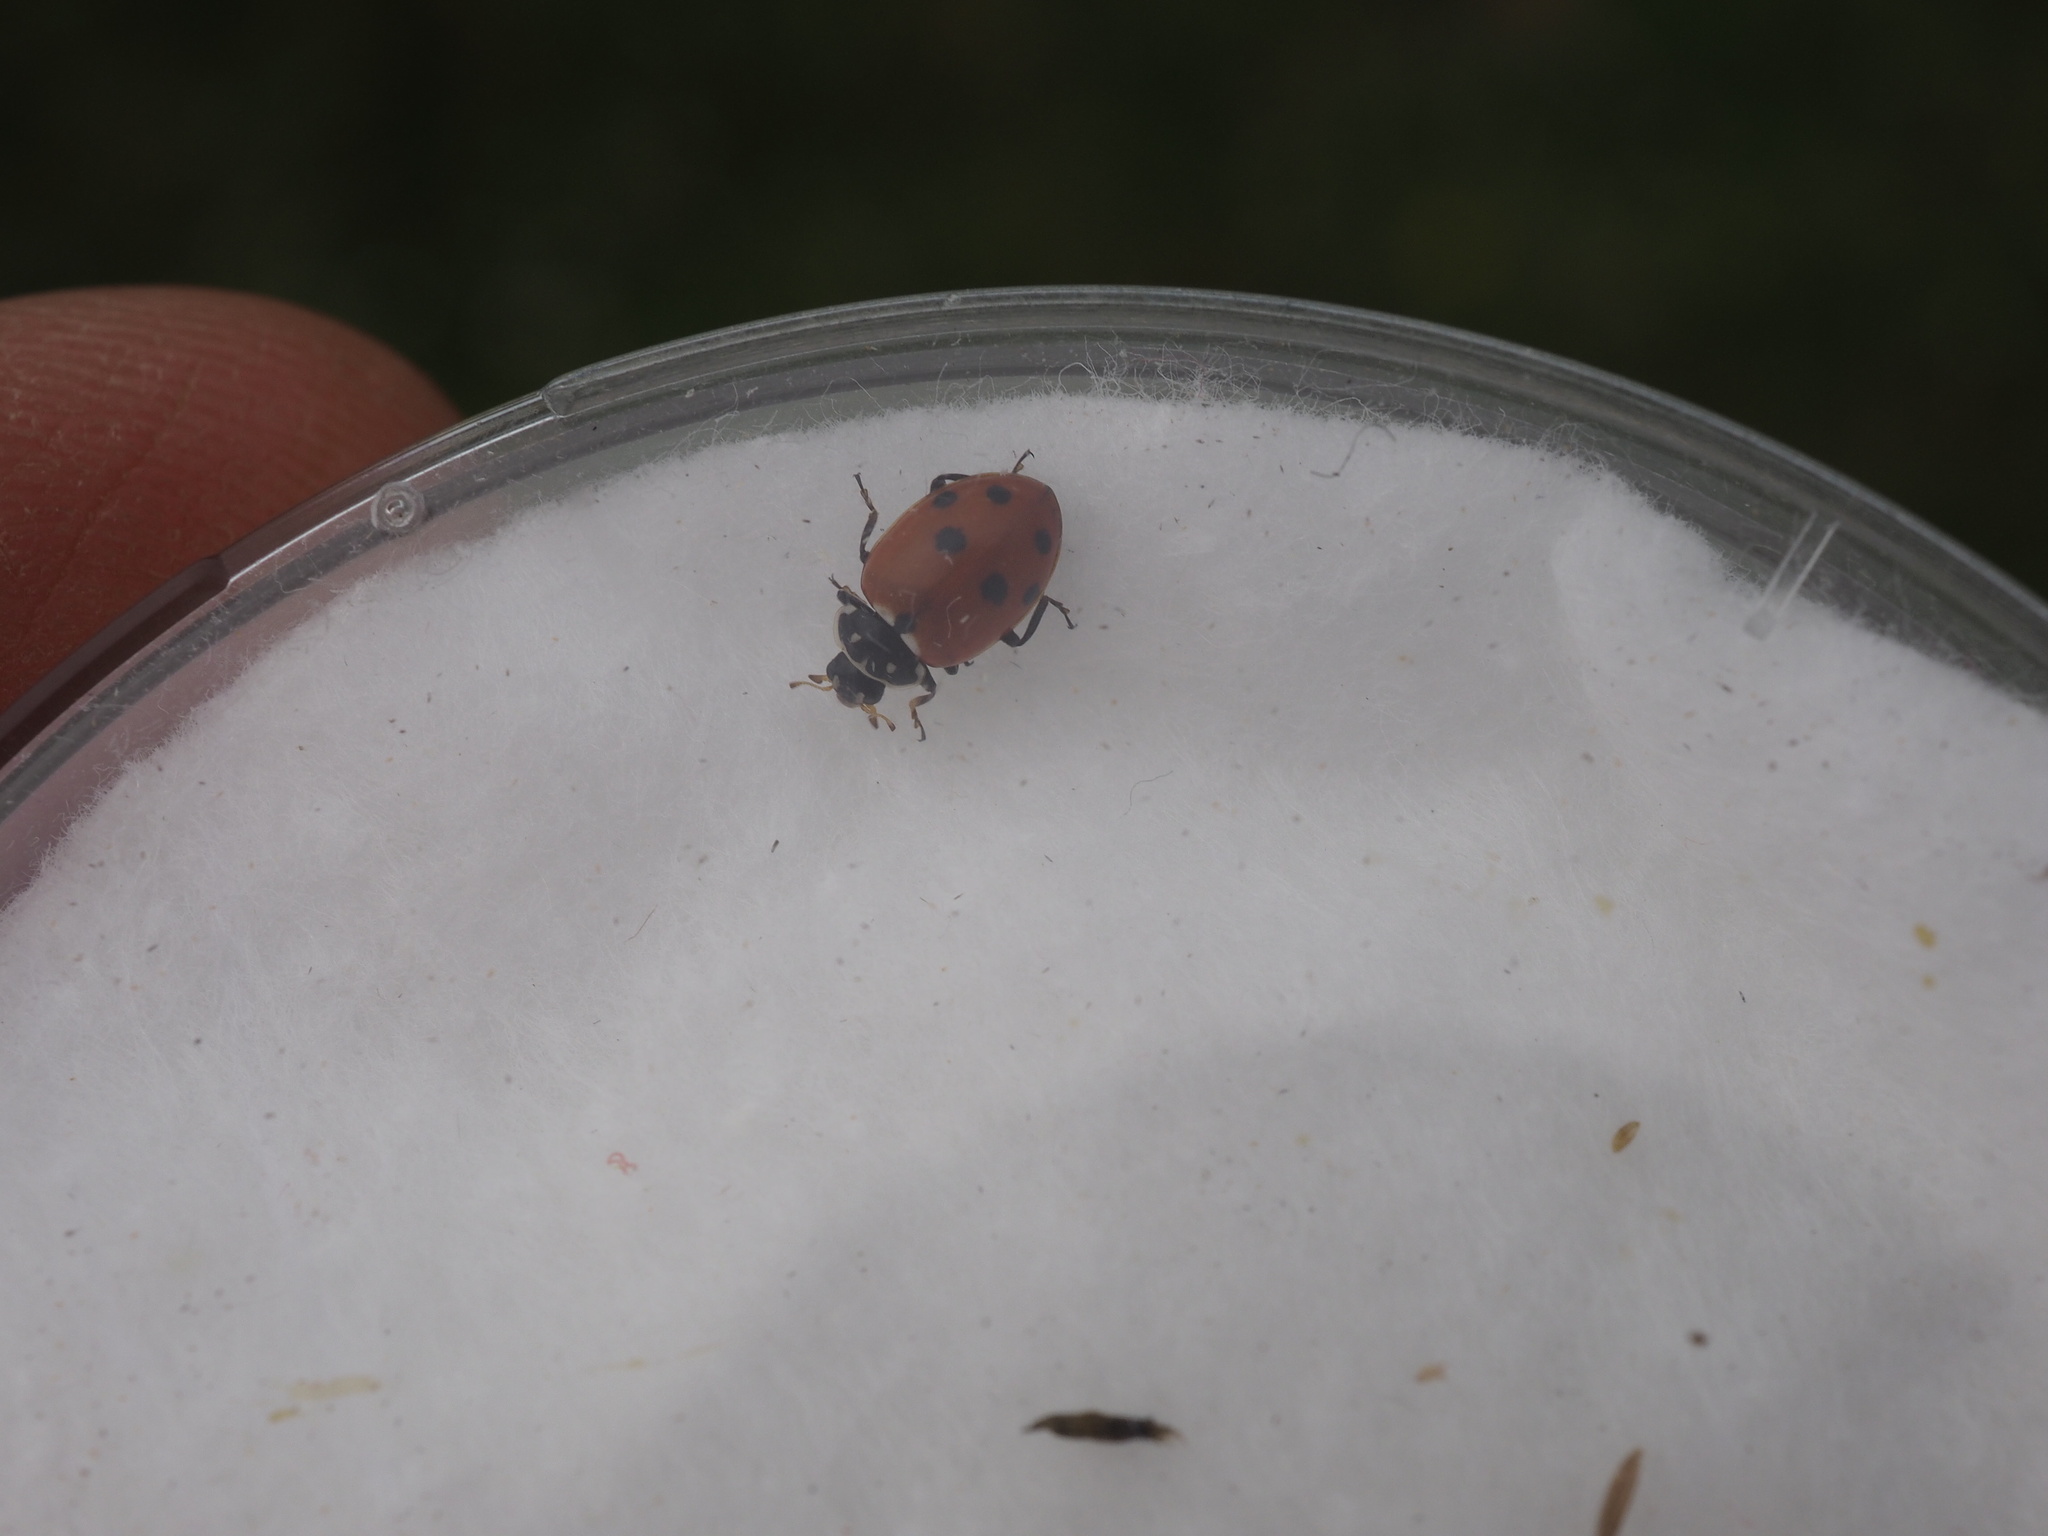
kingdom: Animalia
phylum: Arthropoda
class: Insecta
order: Coleoptera
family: Coccinellidae
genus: Hippodamia
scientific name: Hippodamia variegata
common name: Ladybird beetle
